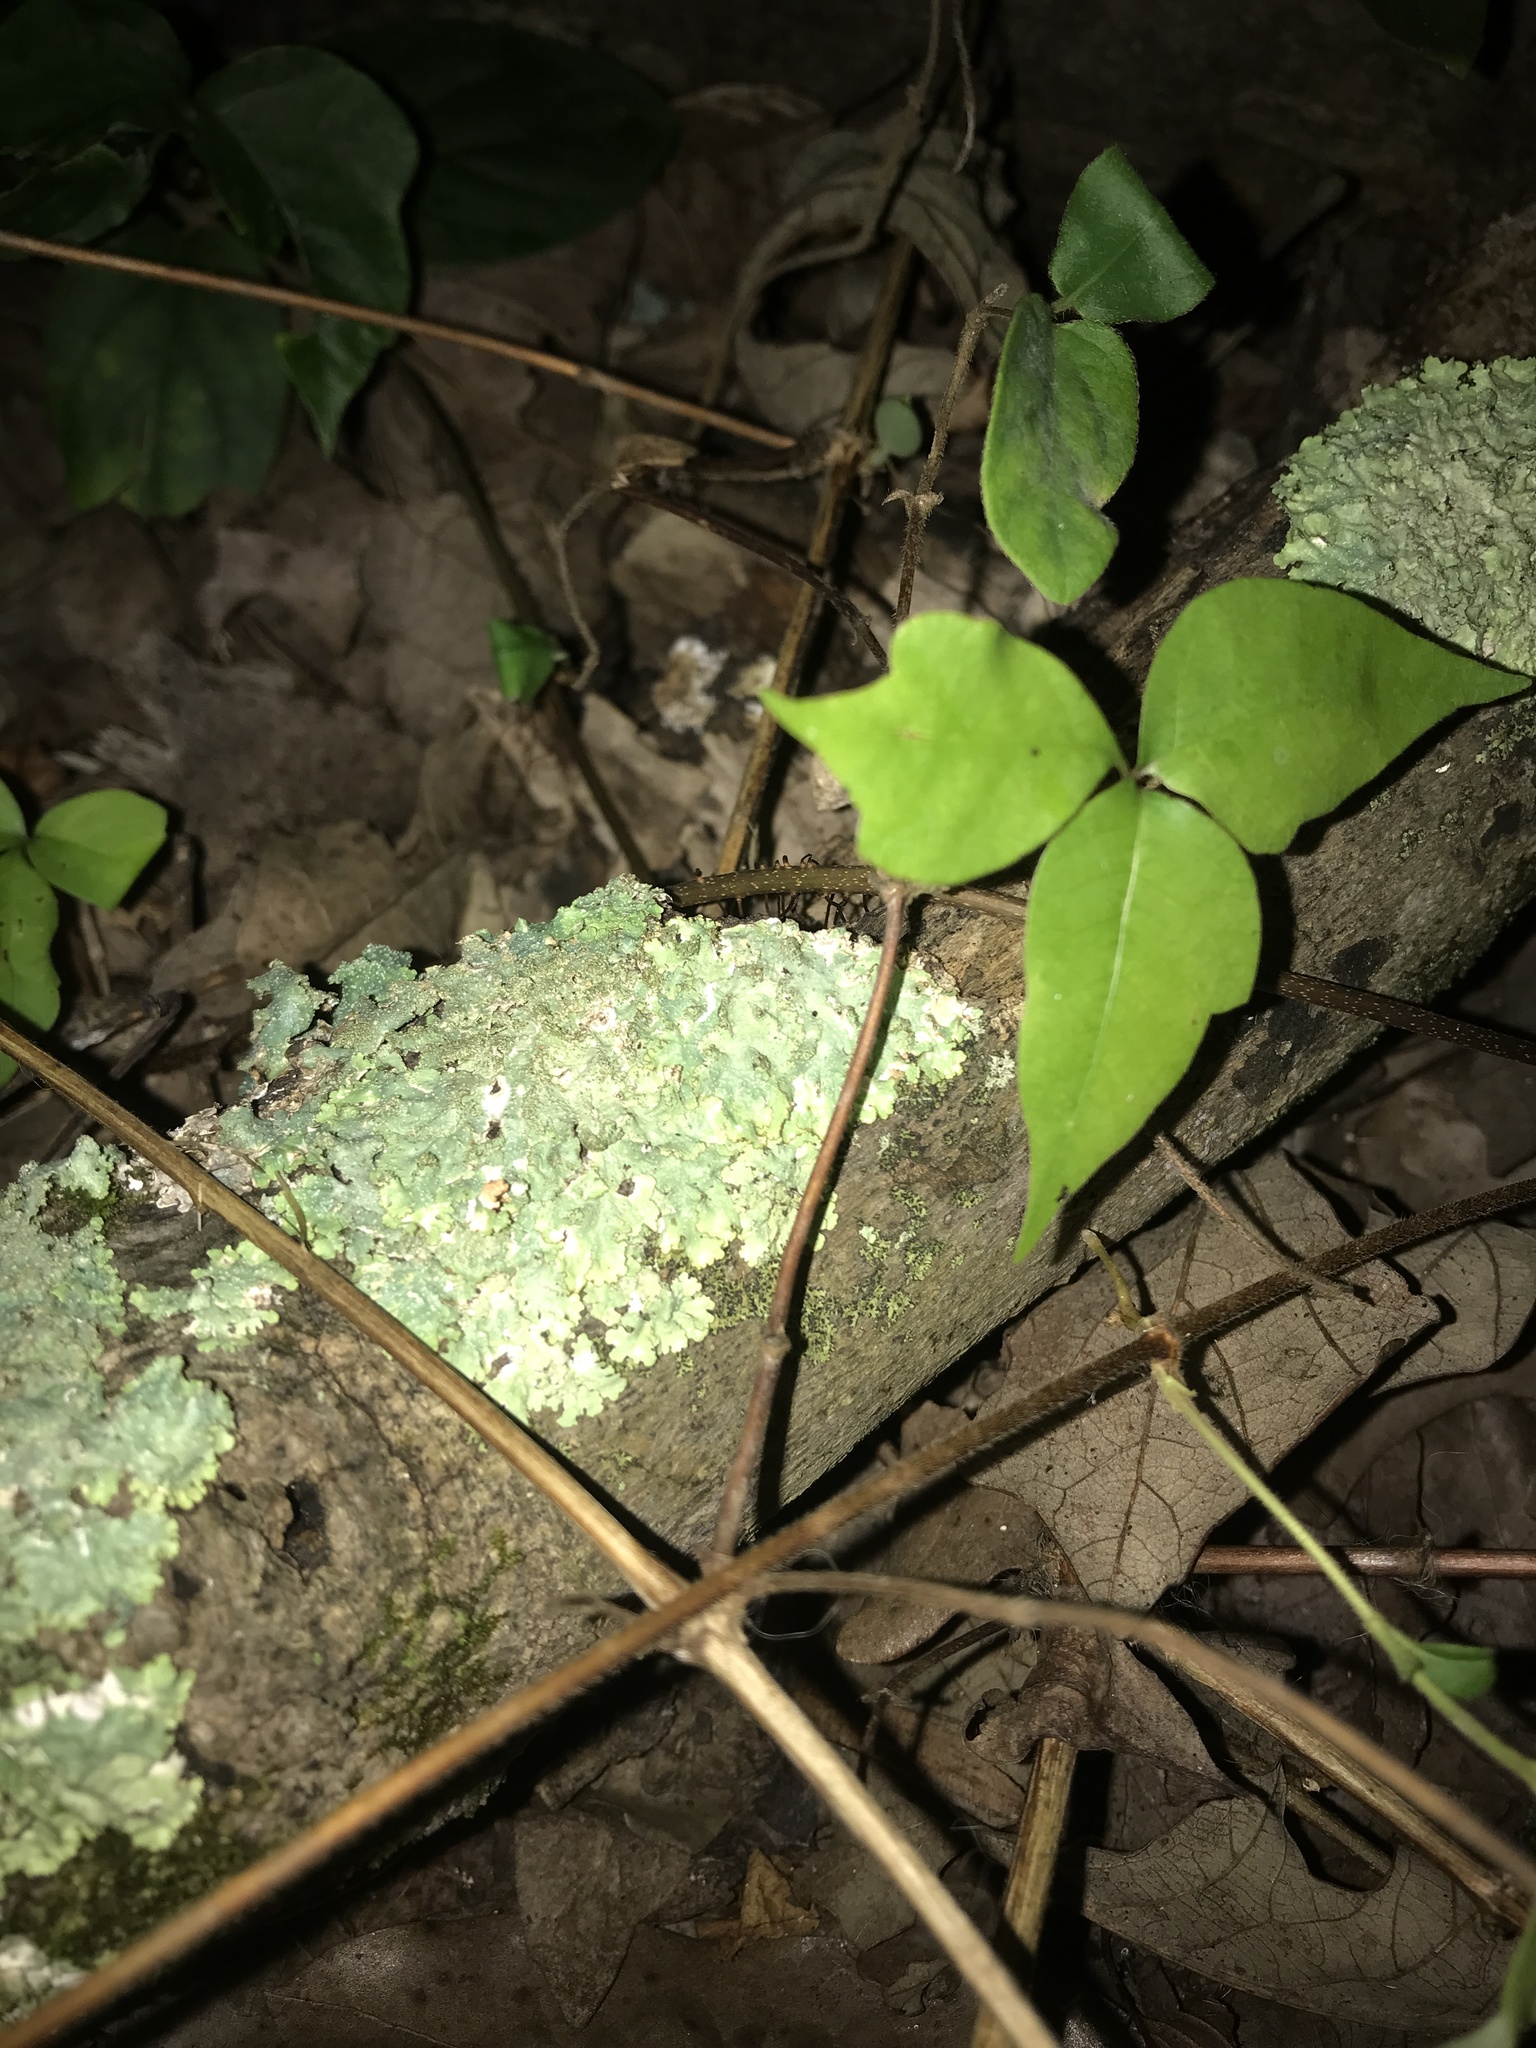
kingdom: Fungi
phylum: Ascomycota
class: Lecanoromycetes
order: Lecanorales
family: Parmeliaceae
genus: Punctelia
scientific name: Punctelia rudecta
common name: Rough speckled shield lichen
